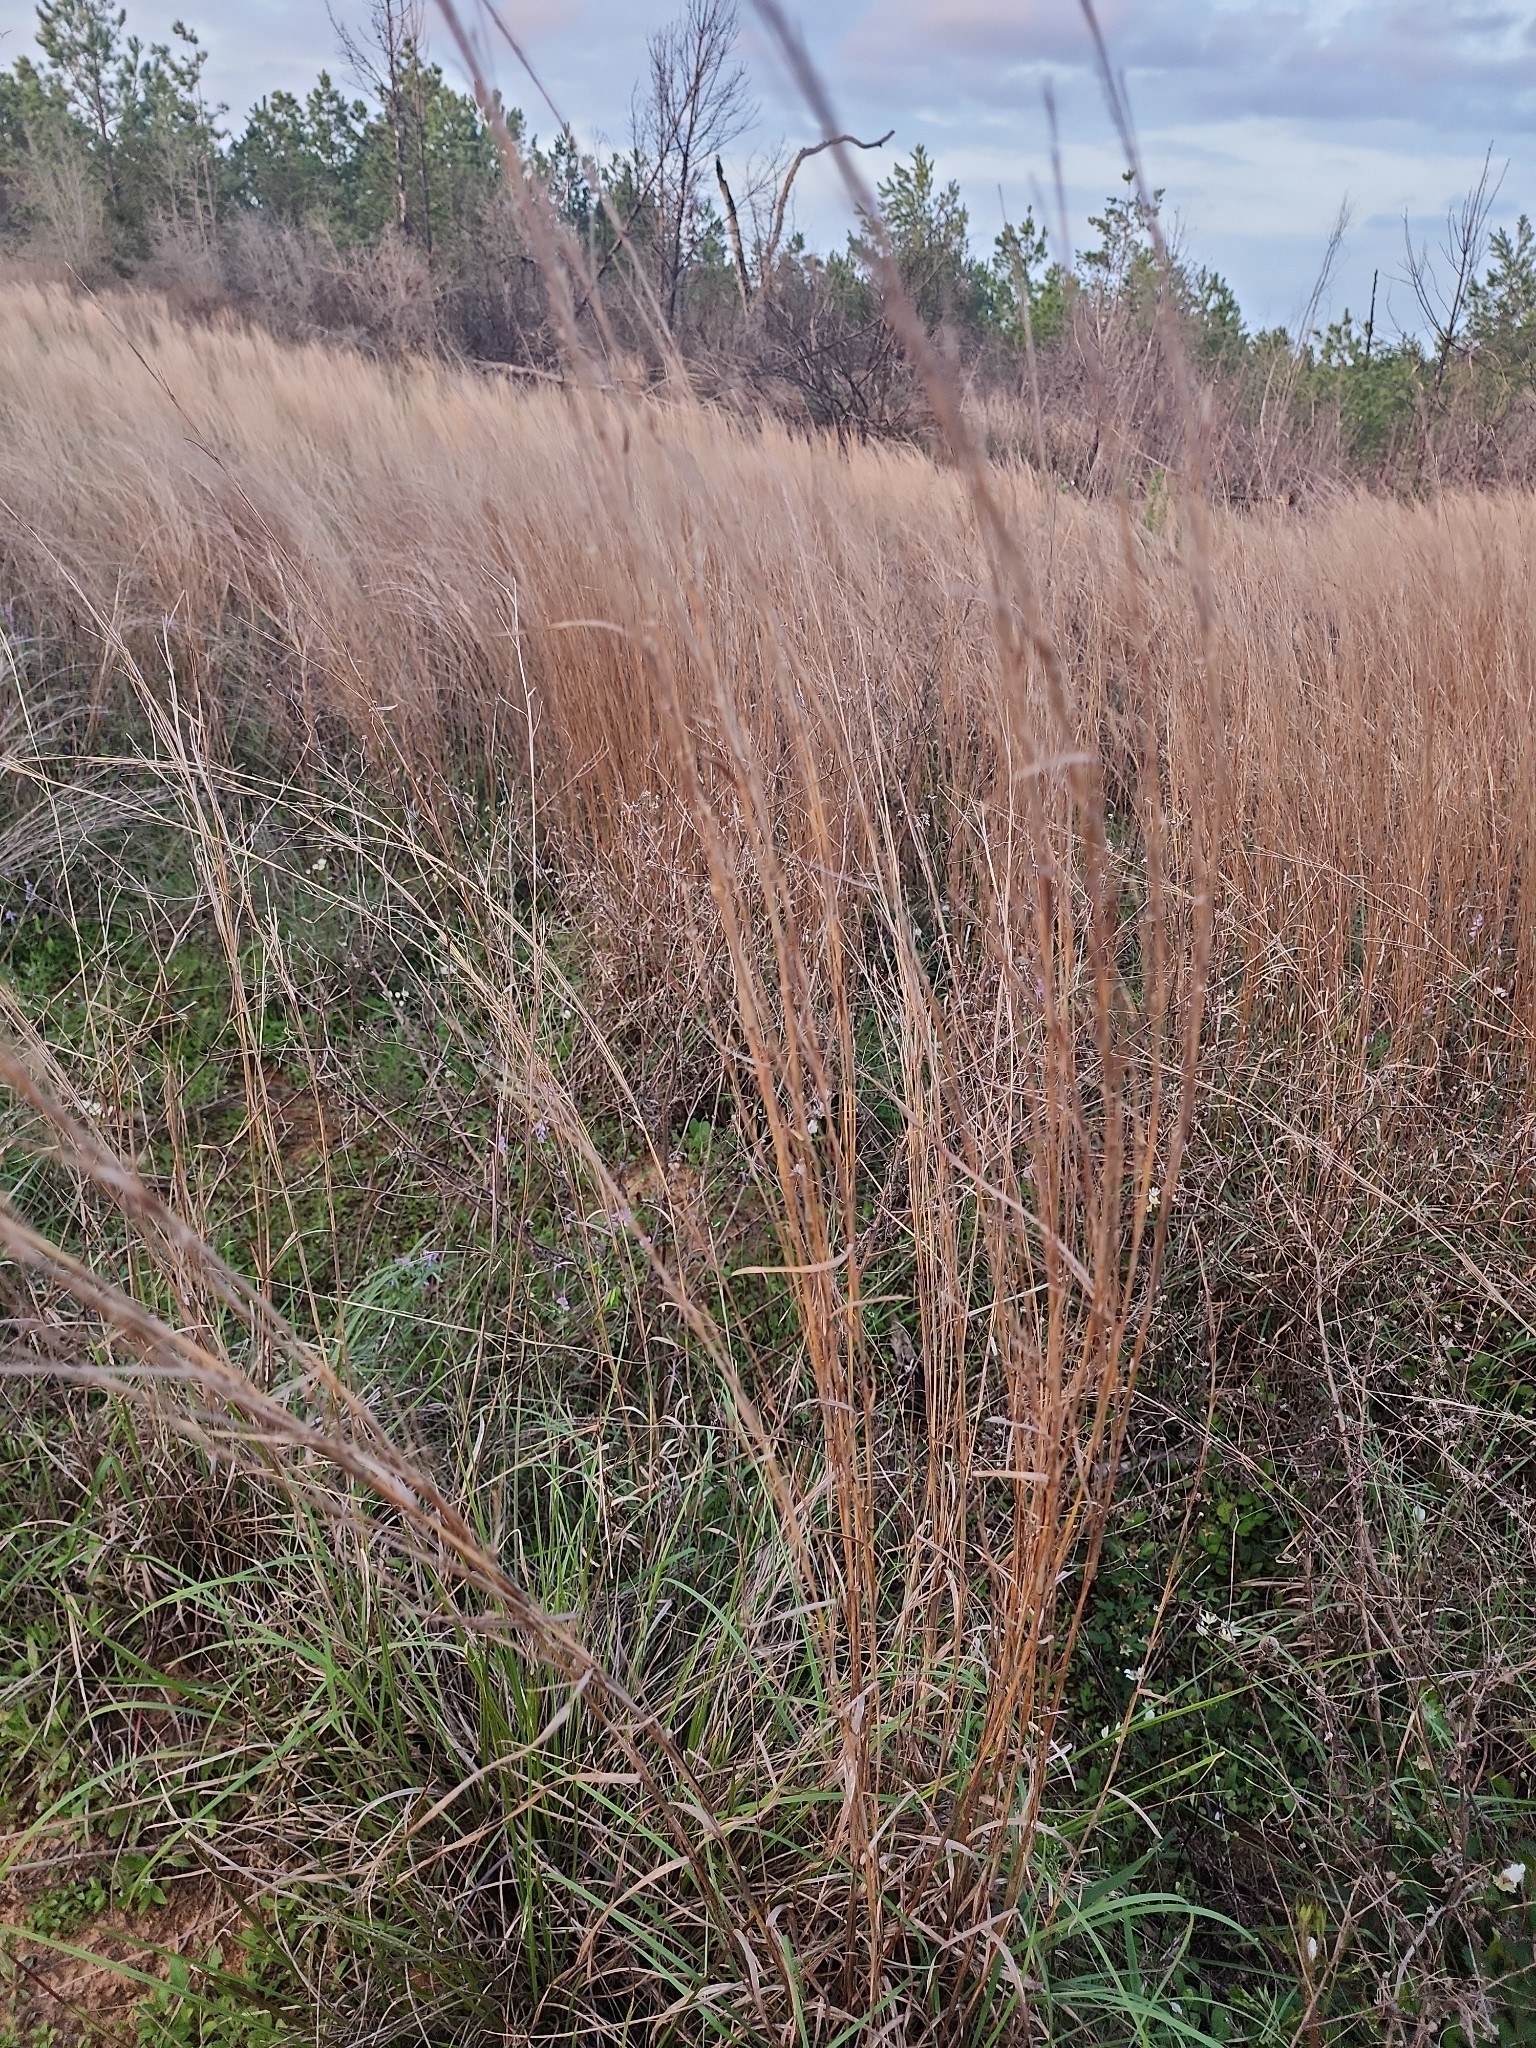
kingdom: Plantae
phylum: Tracheophyta
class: Liliopsida
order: Poales
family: Poaceae
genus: Schizachyrium
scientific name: Schizachyrium scoparium
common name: Little bluestem
